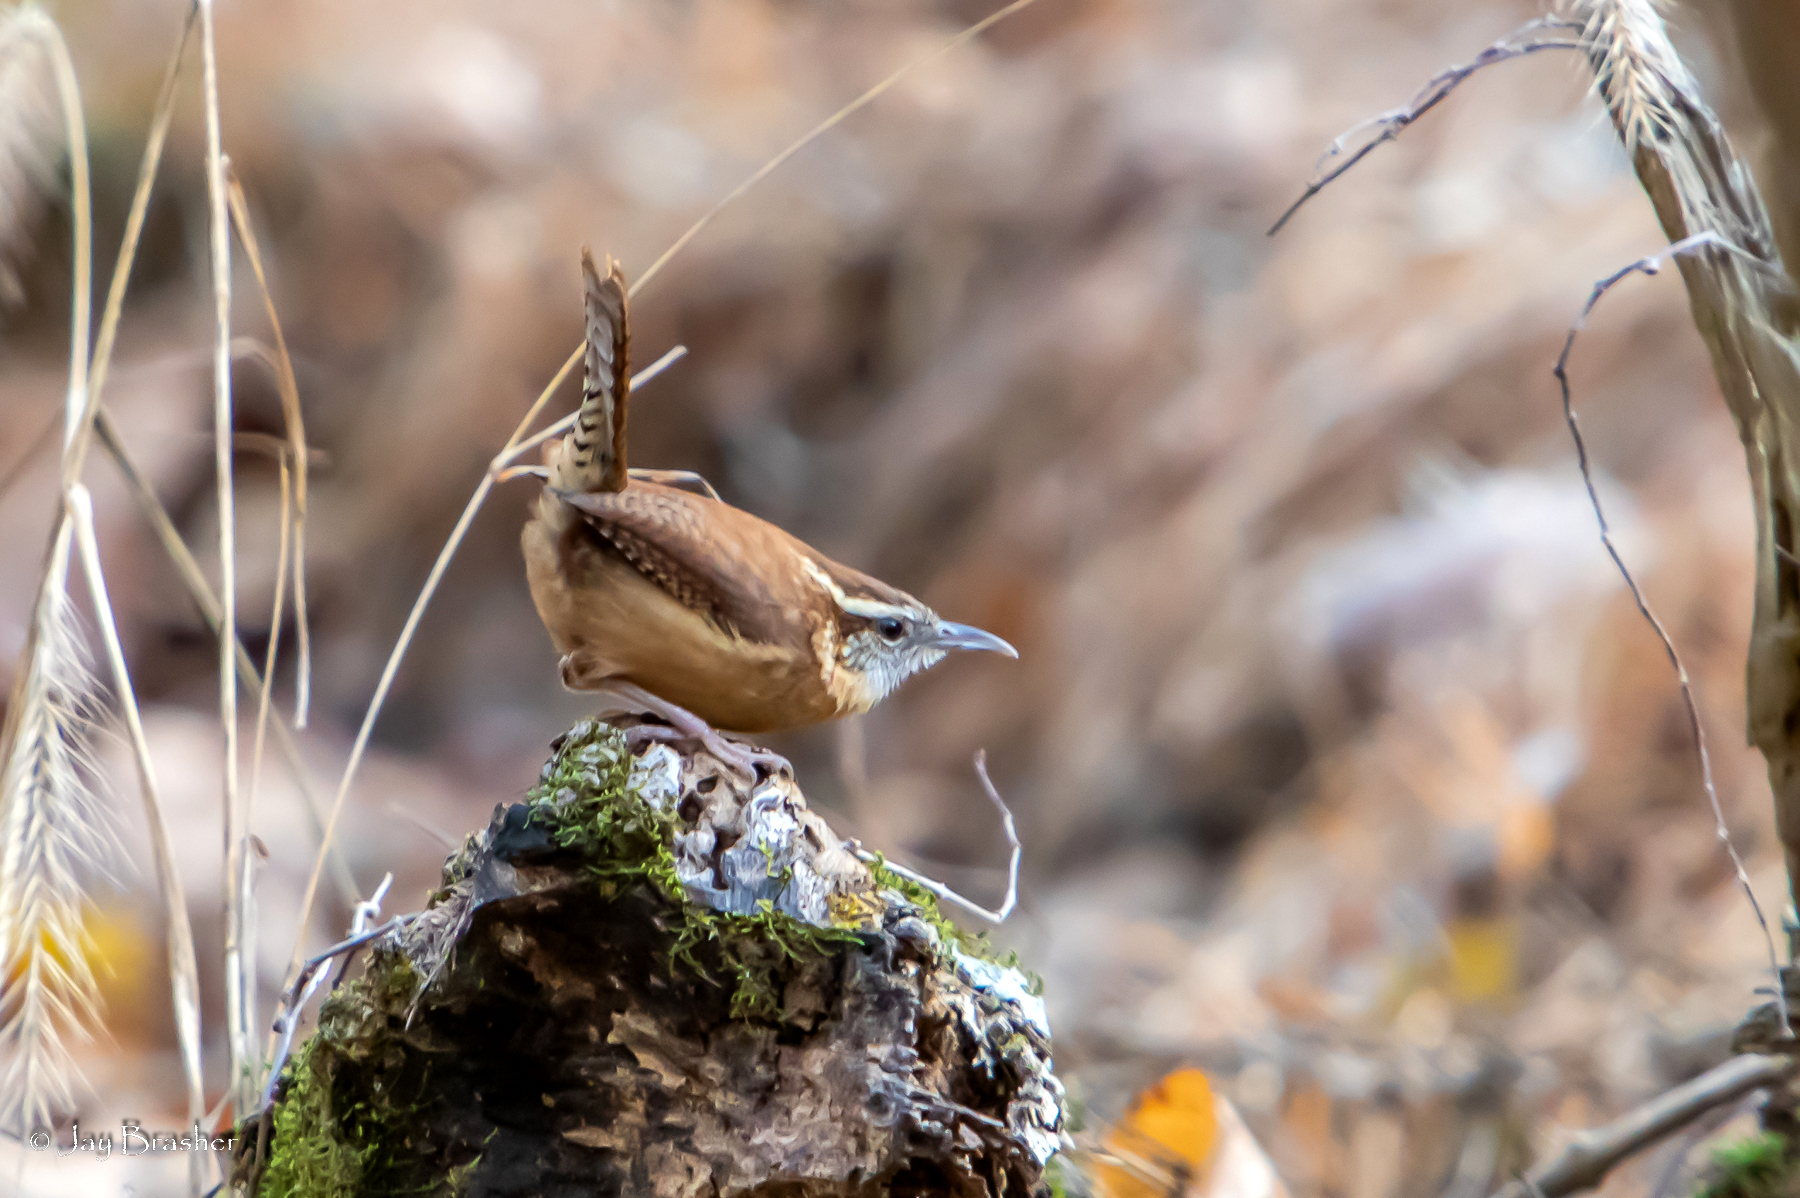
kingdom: Animalia
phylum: Chordata
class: Aves
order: Passeriformes
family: Troglodytidae
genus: Thryothorus
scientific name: Thryothorus ludovicianus
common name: Carolina wren
